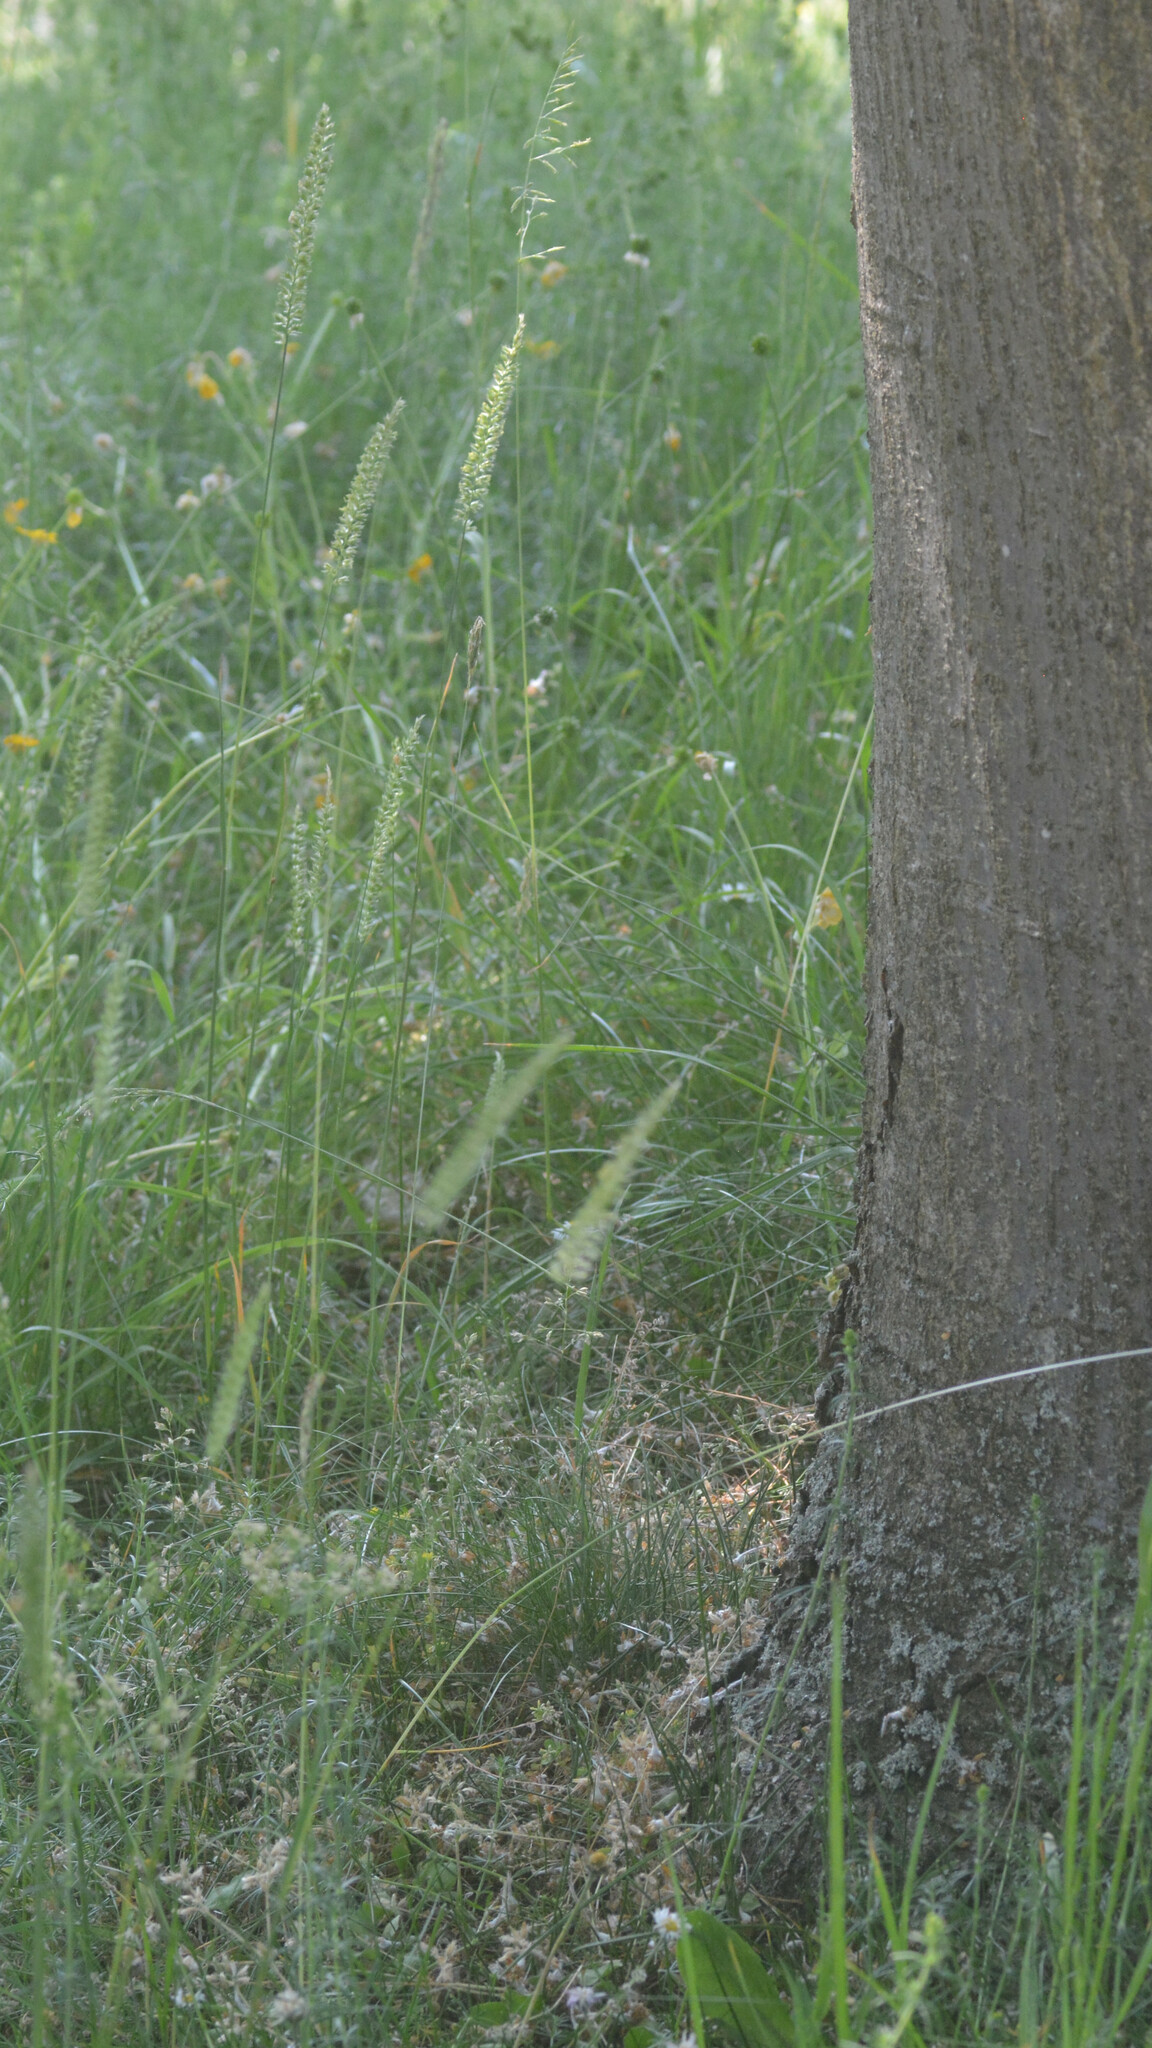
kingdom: Plantae
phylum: Tracheophyta
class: Liliopsida
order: Poales
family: Poaceae
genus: Cynosurus
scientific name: Cynosurus cristatus
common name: Crested dog's-tail
